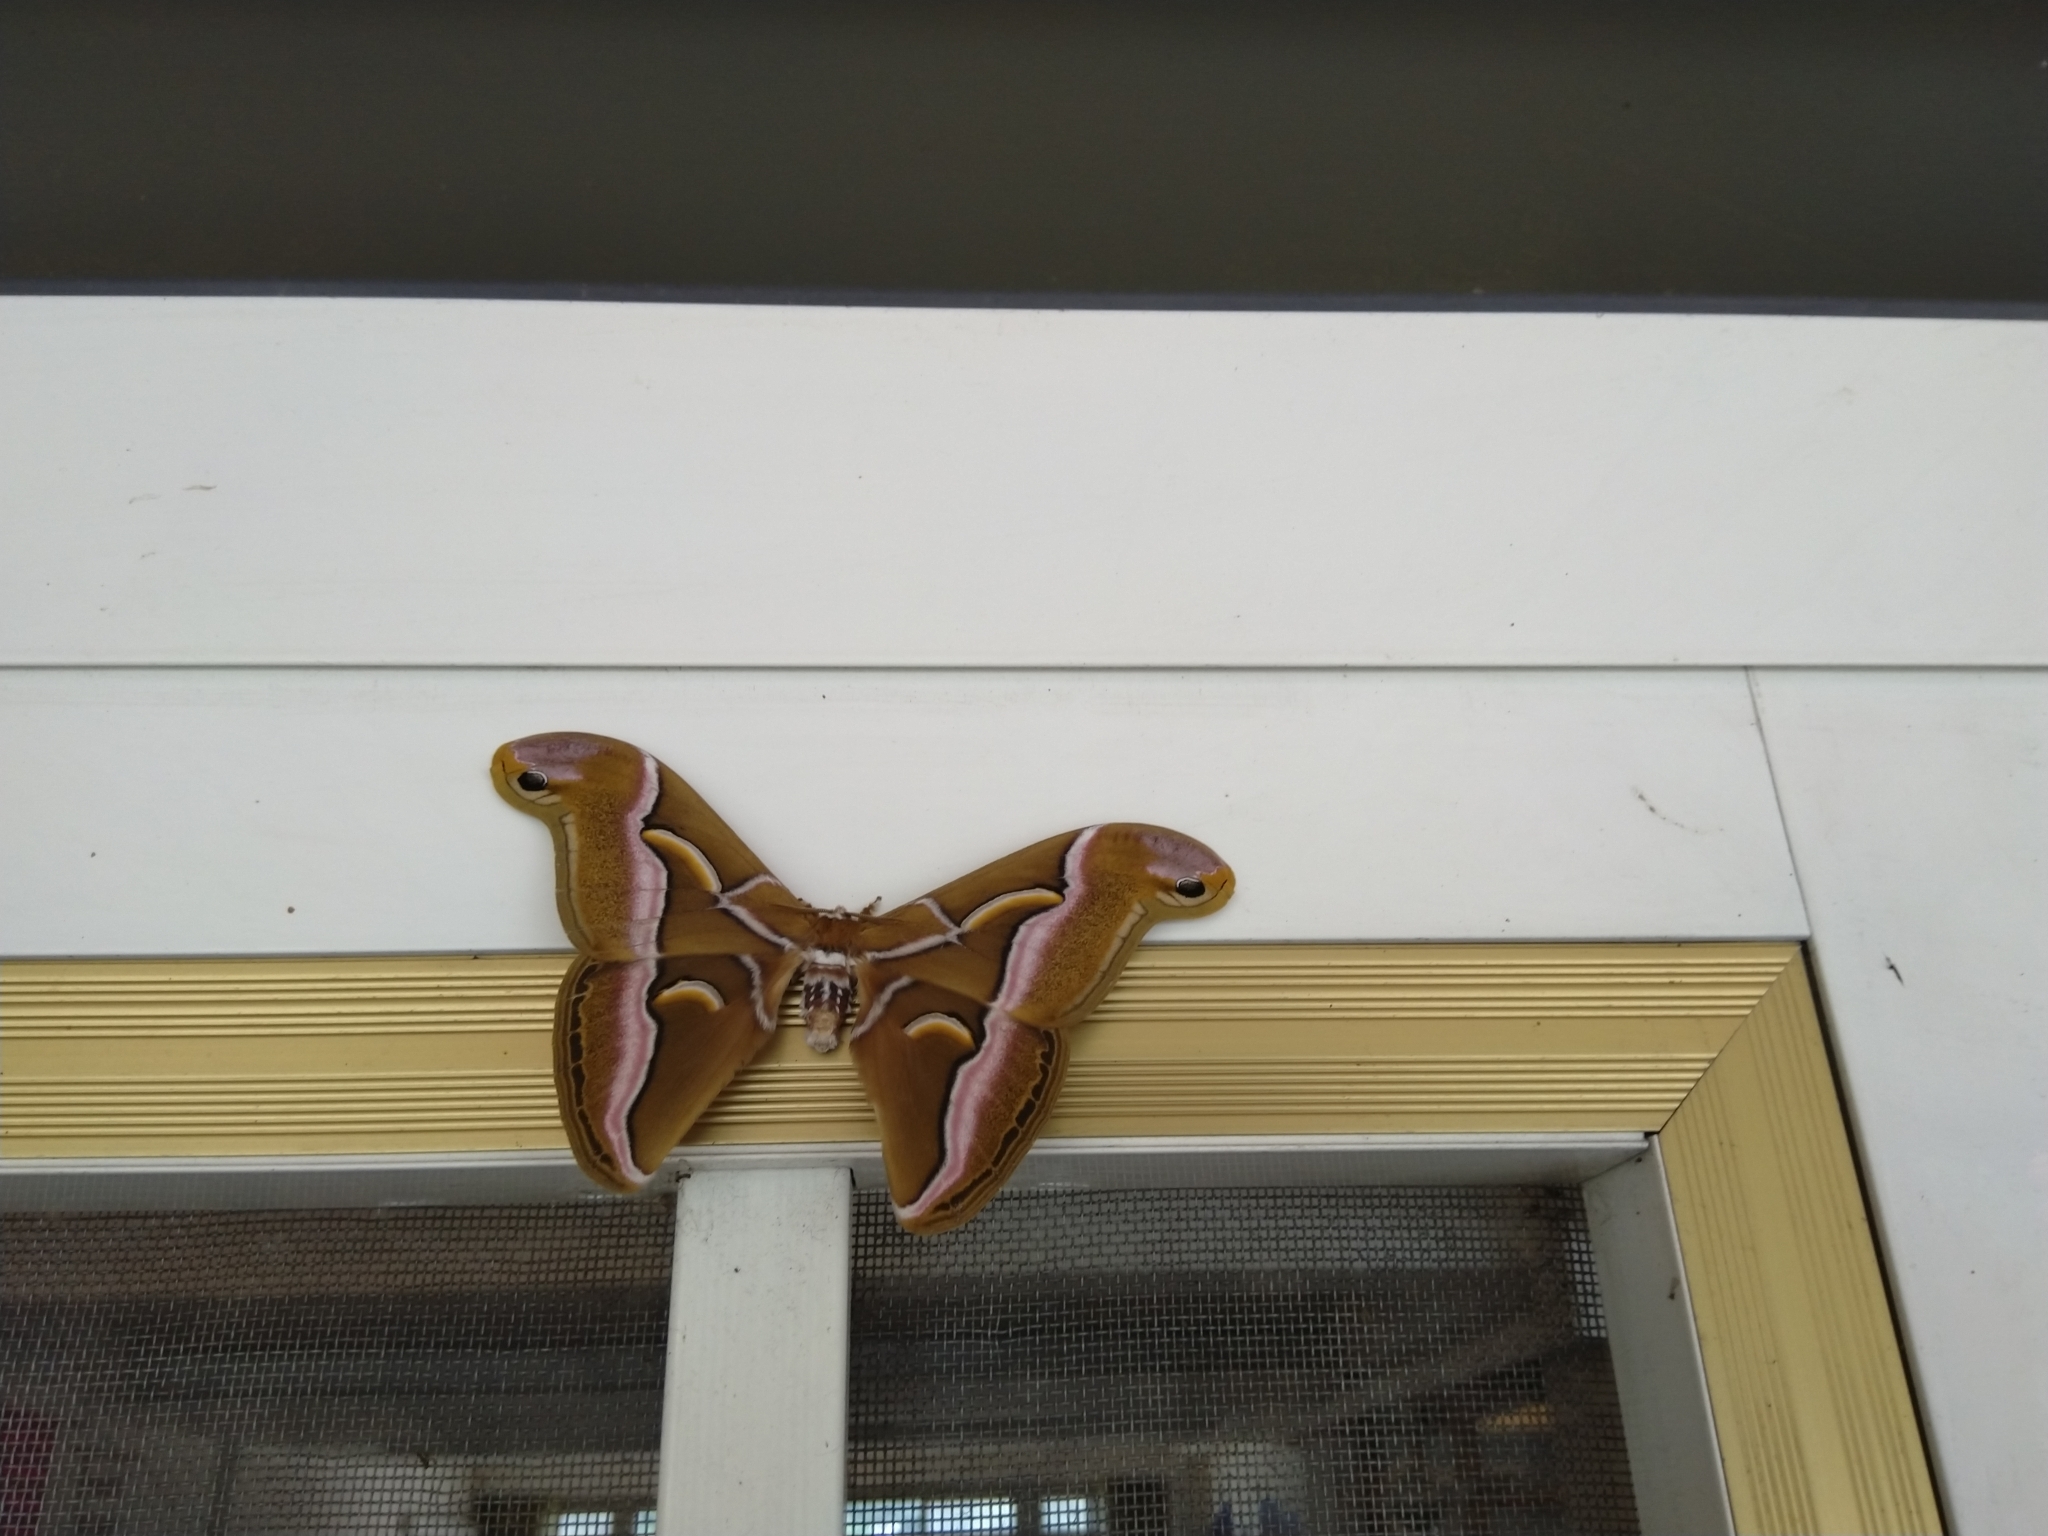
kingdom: Animalia
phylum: Arthropoda
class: Insecta
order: Lepidoptera
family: Saturniidae
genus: Samia
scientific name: Samia wangi
